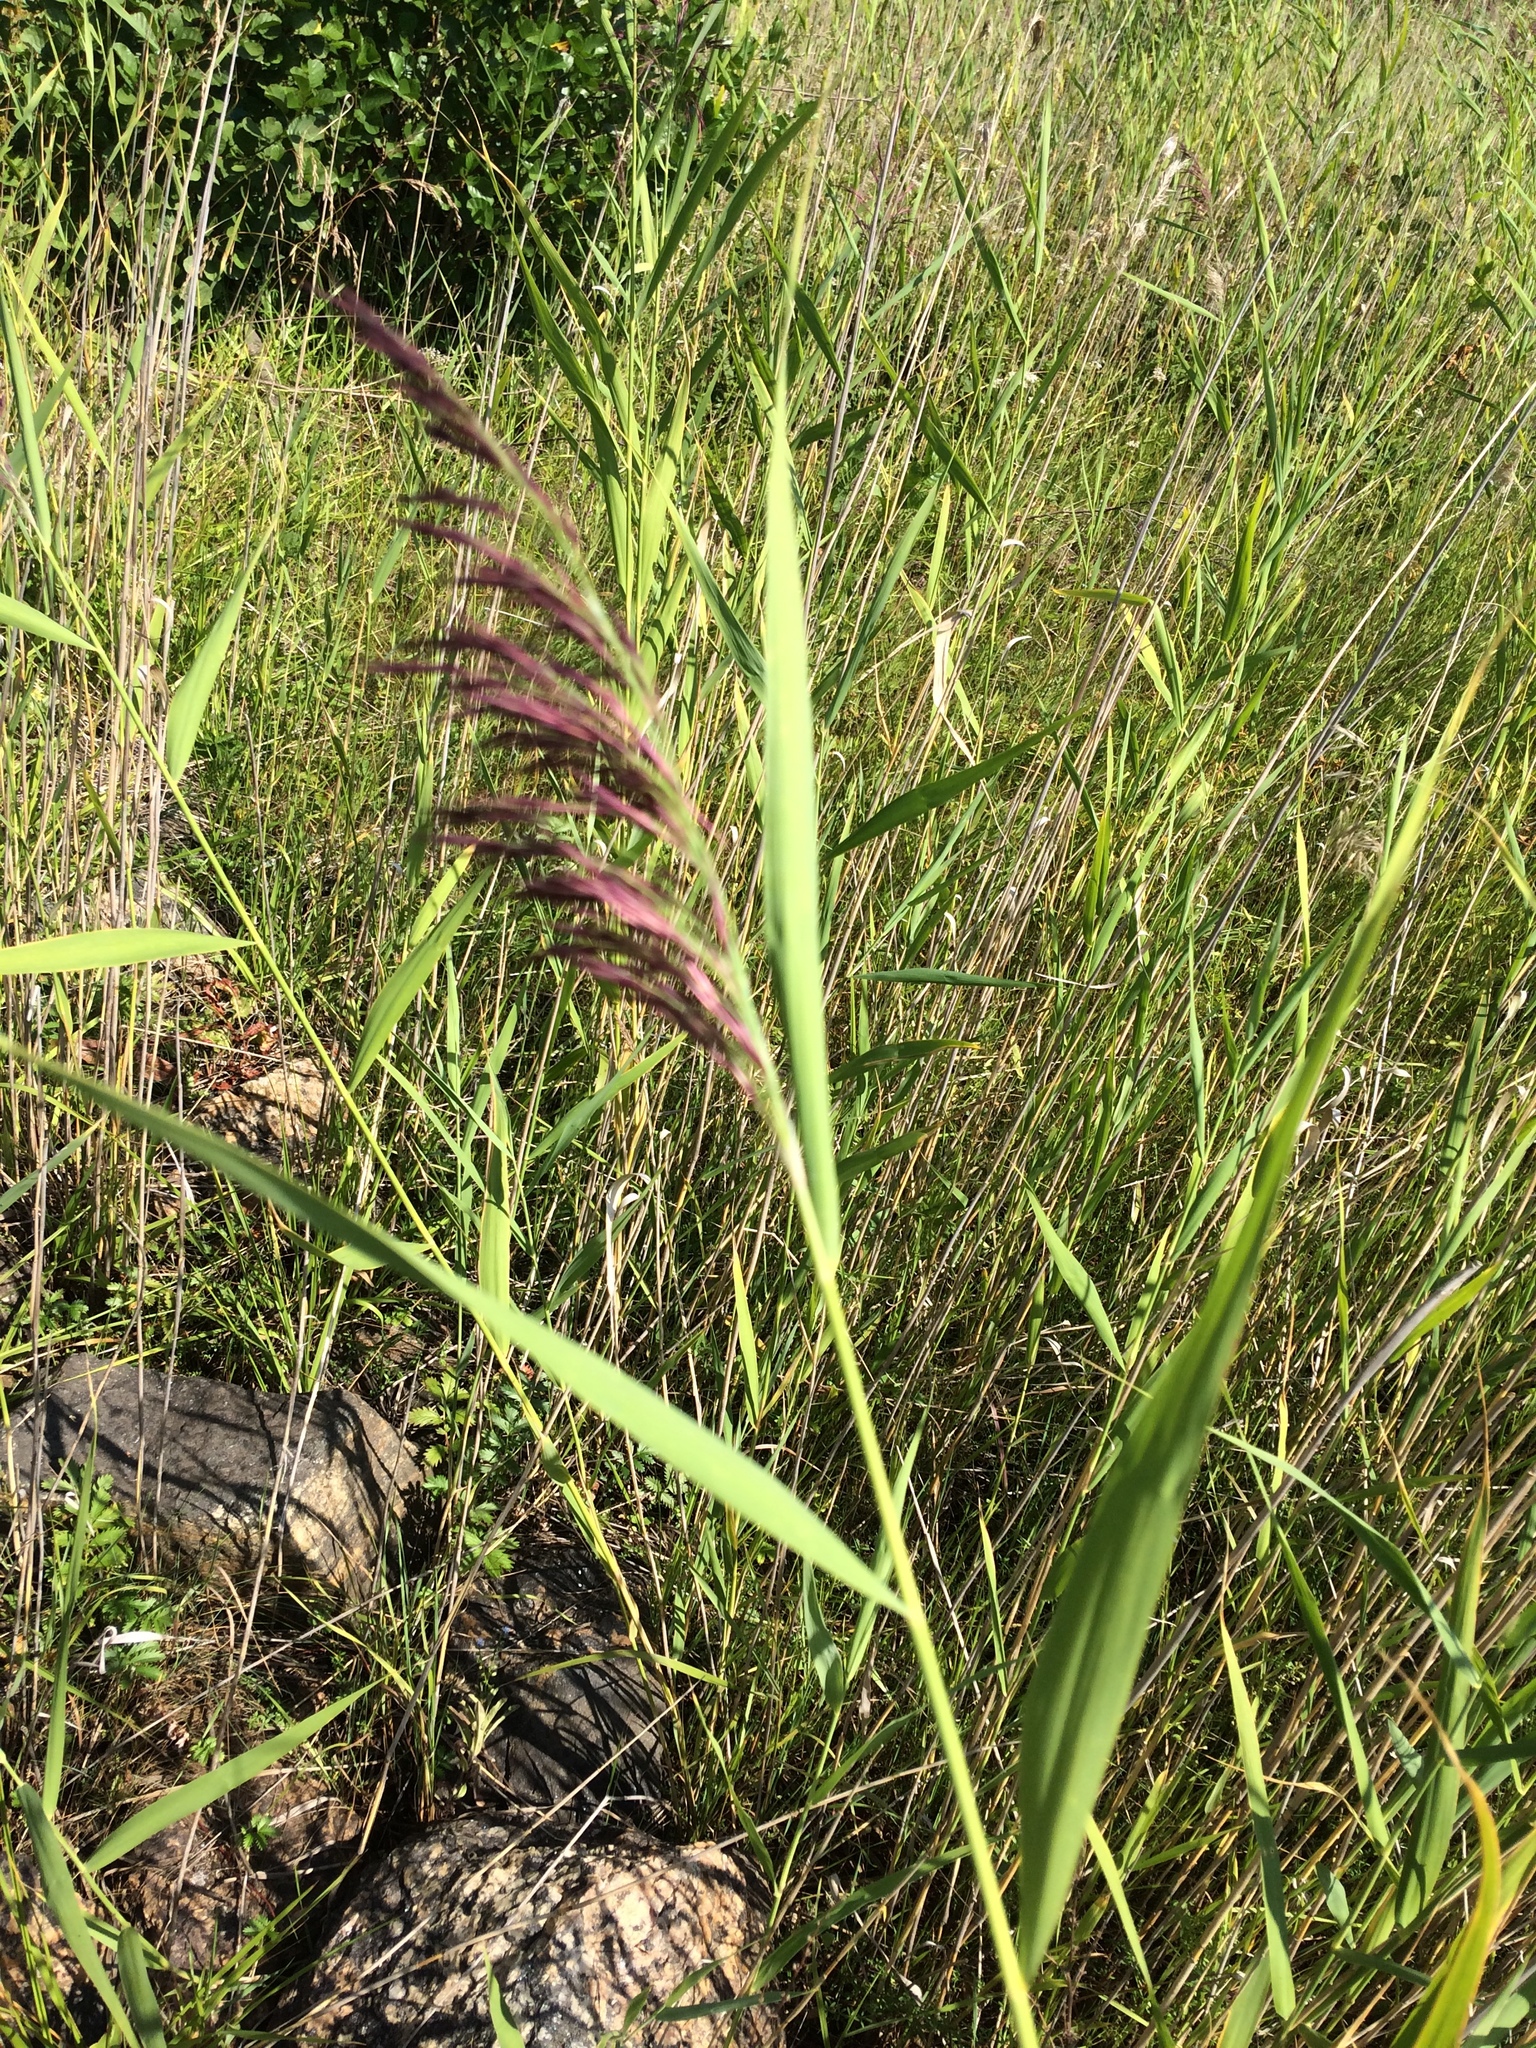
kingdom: Plantae
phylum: Tracheophyta
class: Liliopsida
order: Poales
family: Poaceae
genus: Phragmites
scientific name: Phragmites australis
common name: Common reed
